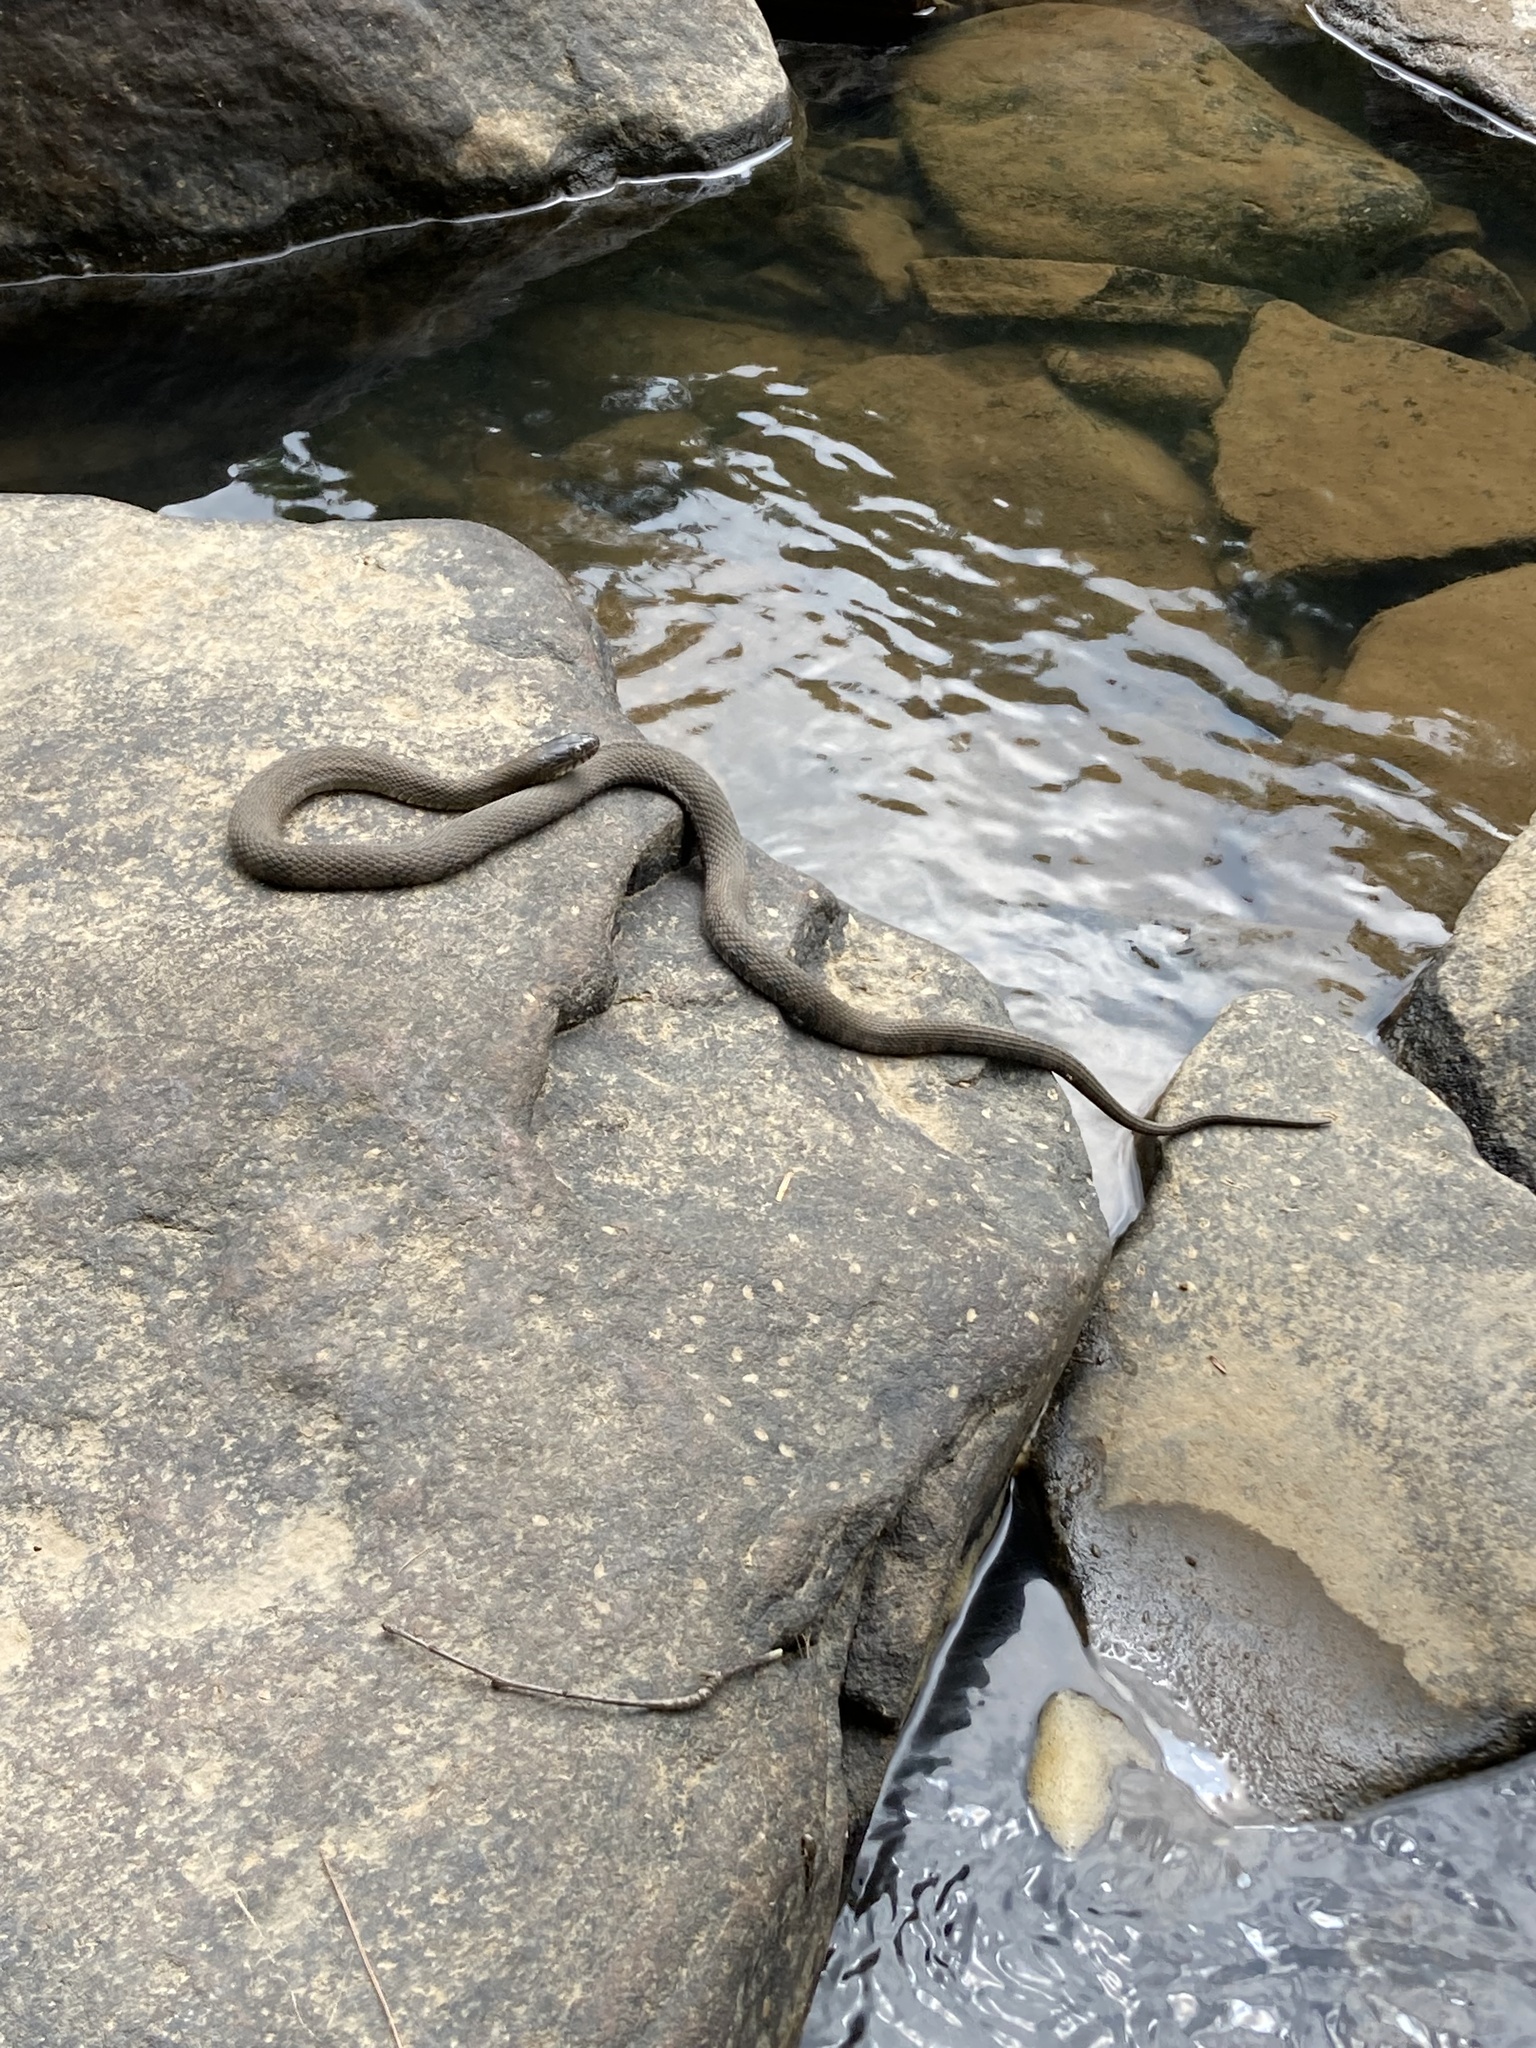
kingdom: Animalia
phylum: Chordata
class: Squamata
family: Colubridae
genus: Nerodia
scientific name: Nerodia sipedon
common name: Northern water snake
